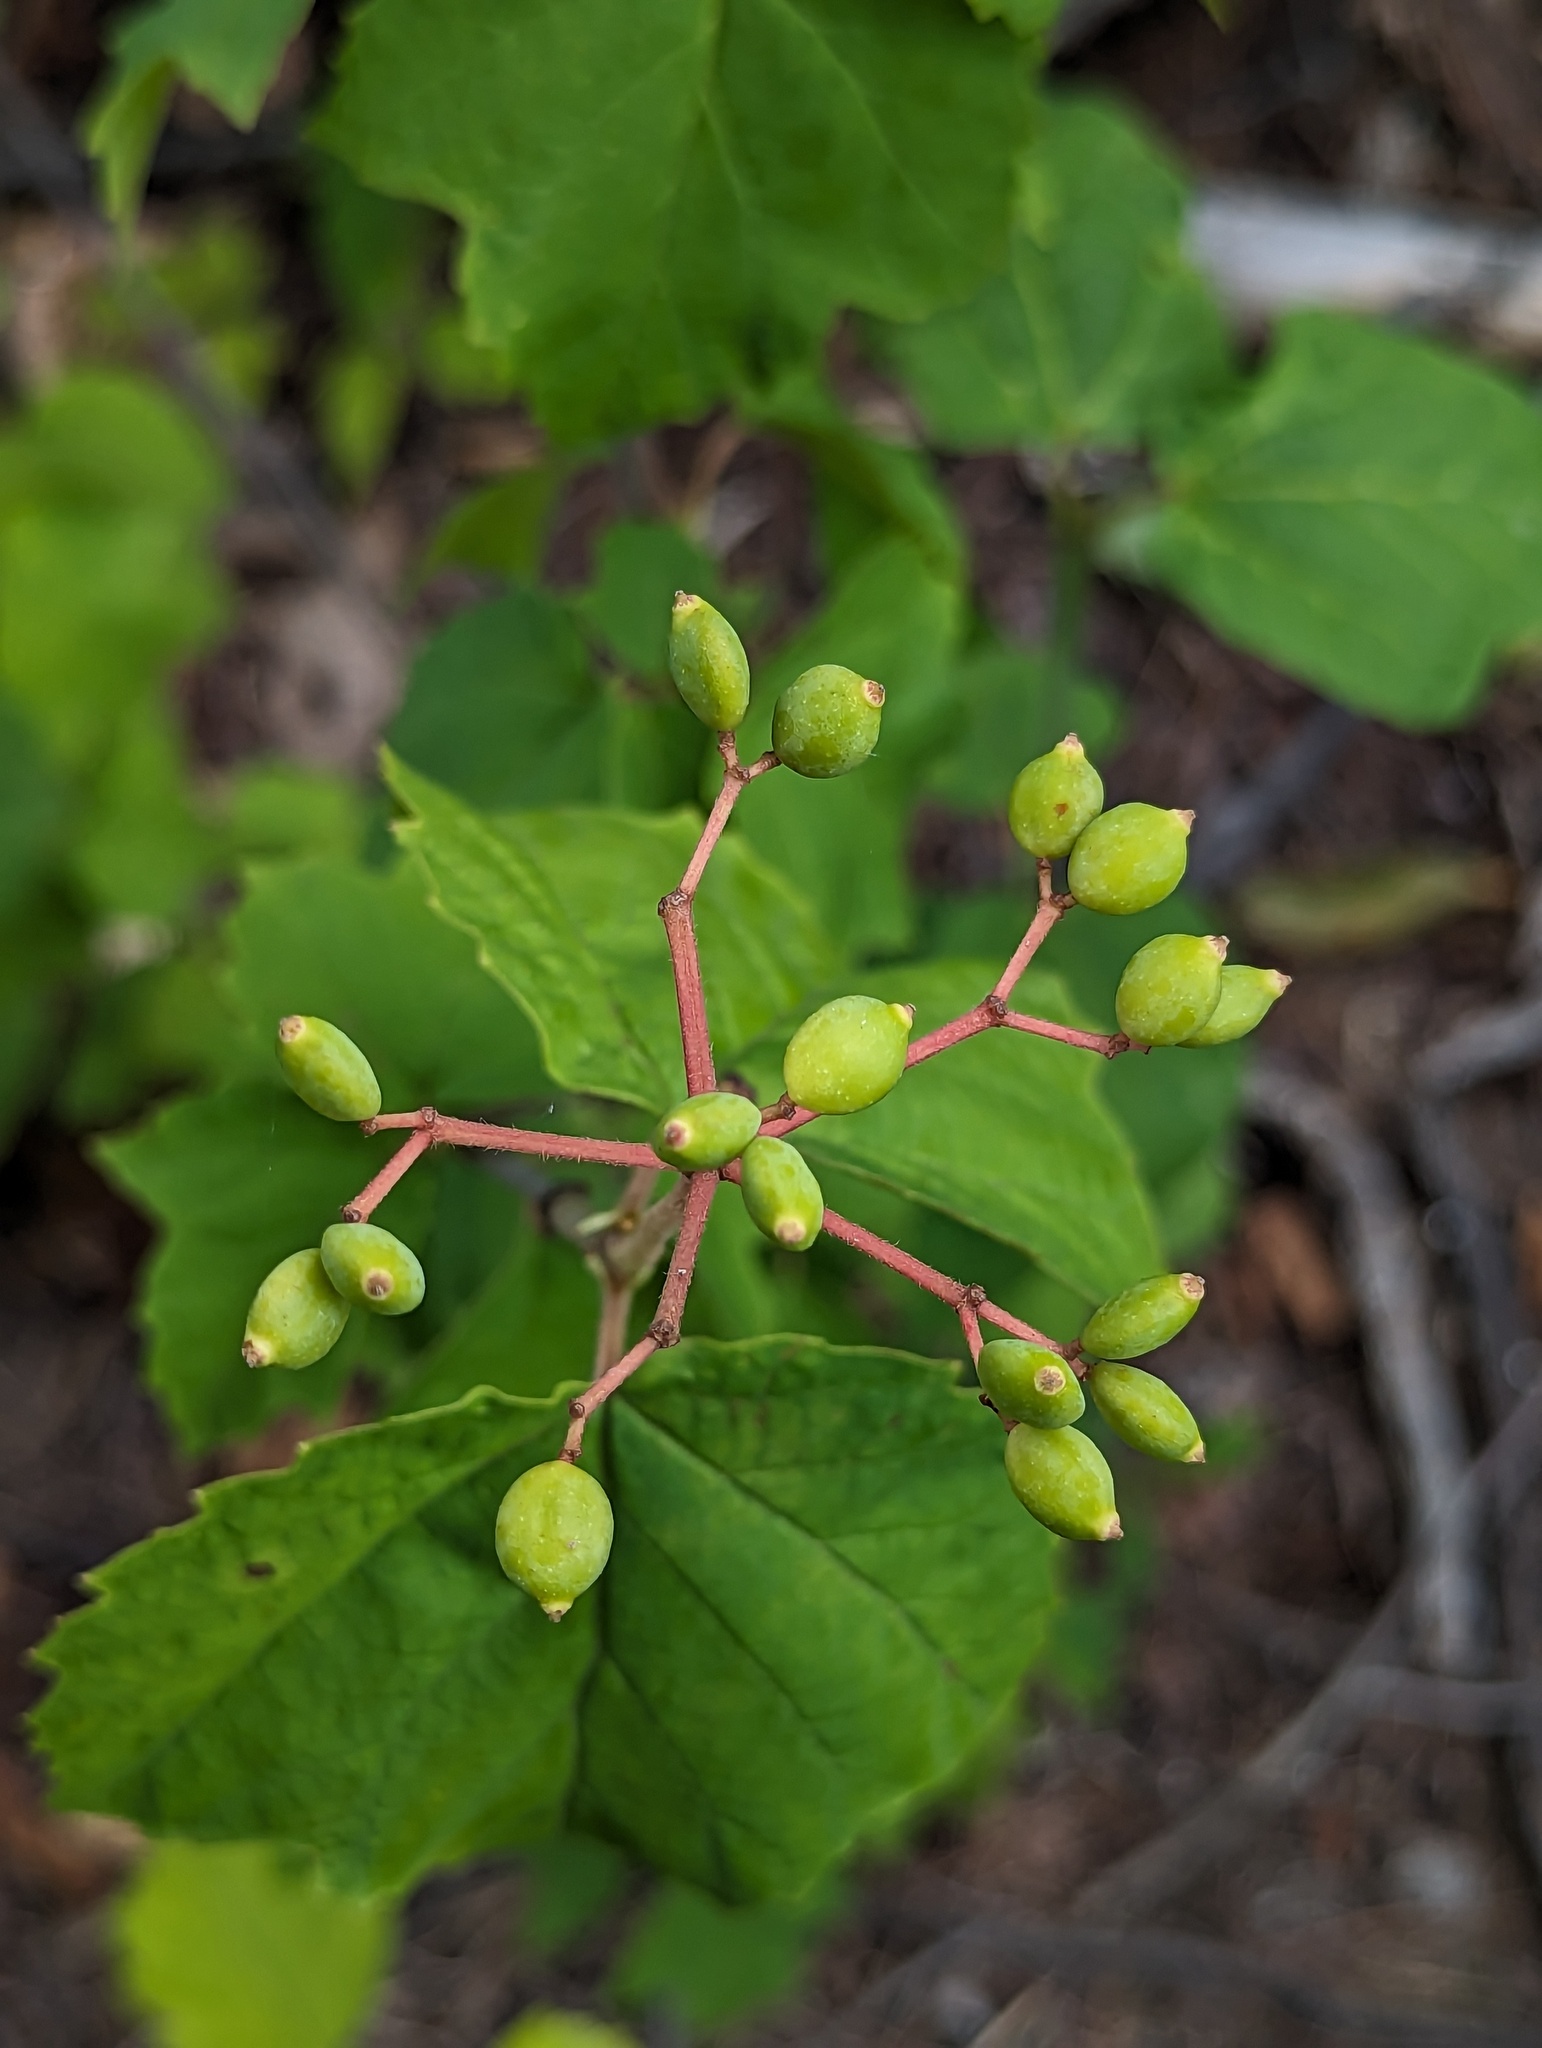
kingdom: Plantae
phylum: Tracheophyta
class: Magnoliopsida
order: Dipsacales
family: Viburnaceae
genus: Viburnum
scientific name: Viburnum acerifolium
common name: Dockmackie
